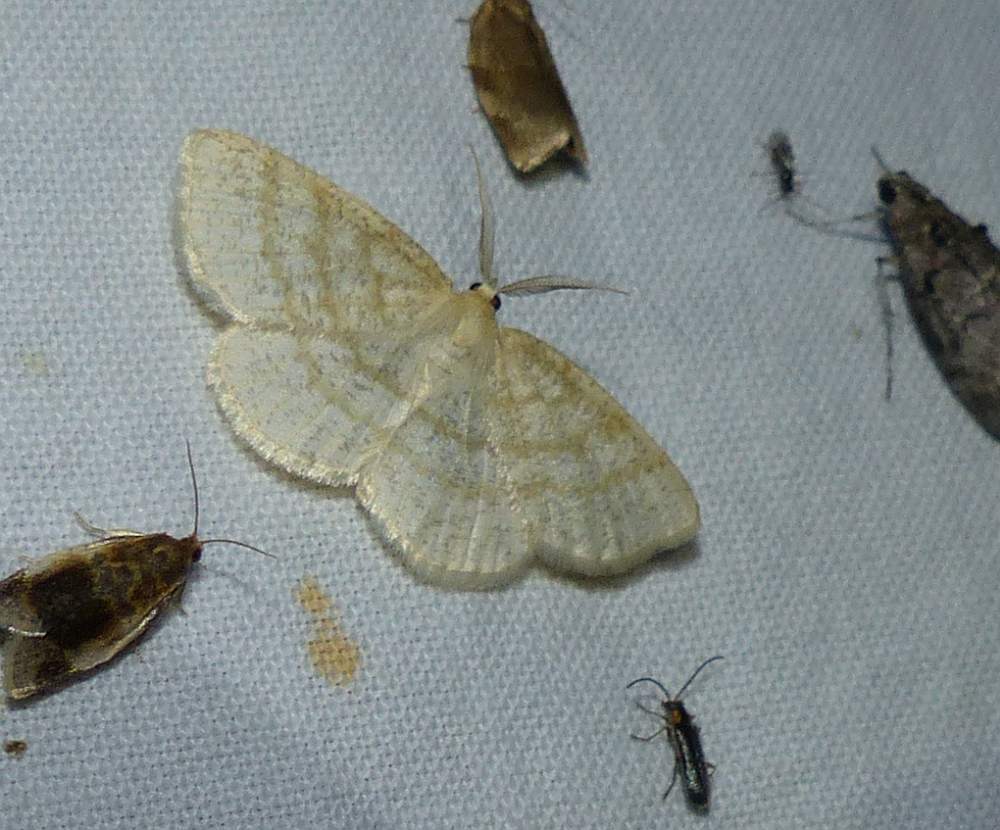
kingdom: Animalia
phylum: Arthropoda
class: Insecta
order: Lepidoptera
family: Geometridae
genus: Cabera
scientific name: Cabera erythemaria
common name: Yellow-dusted cream moth
